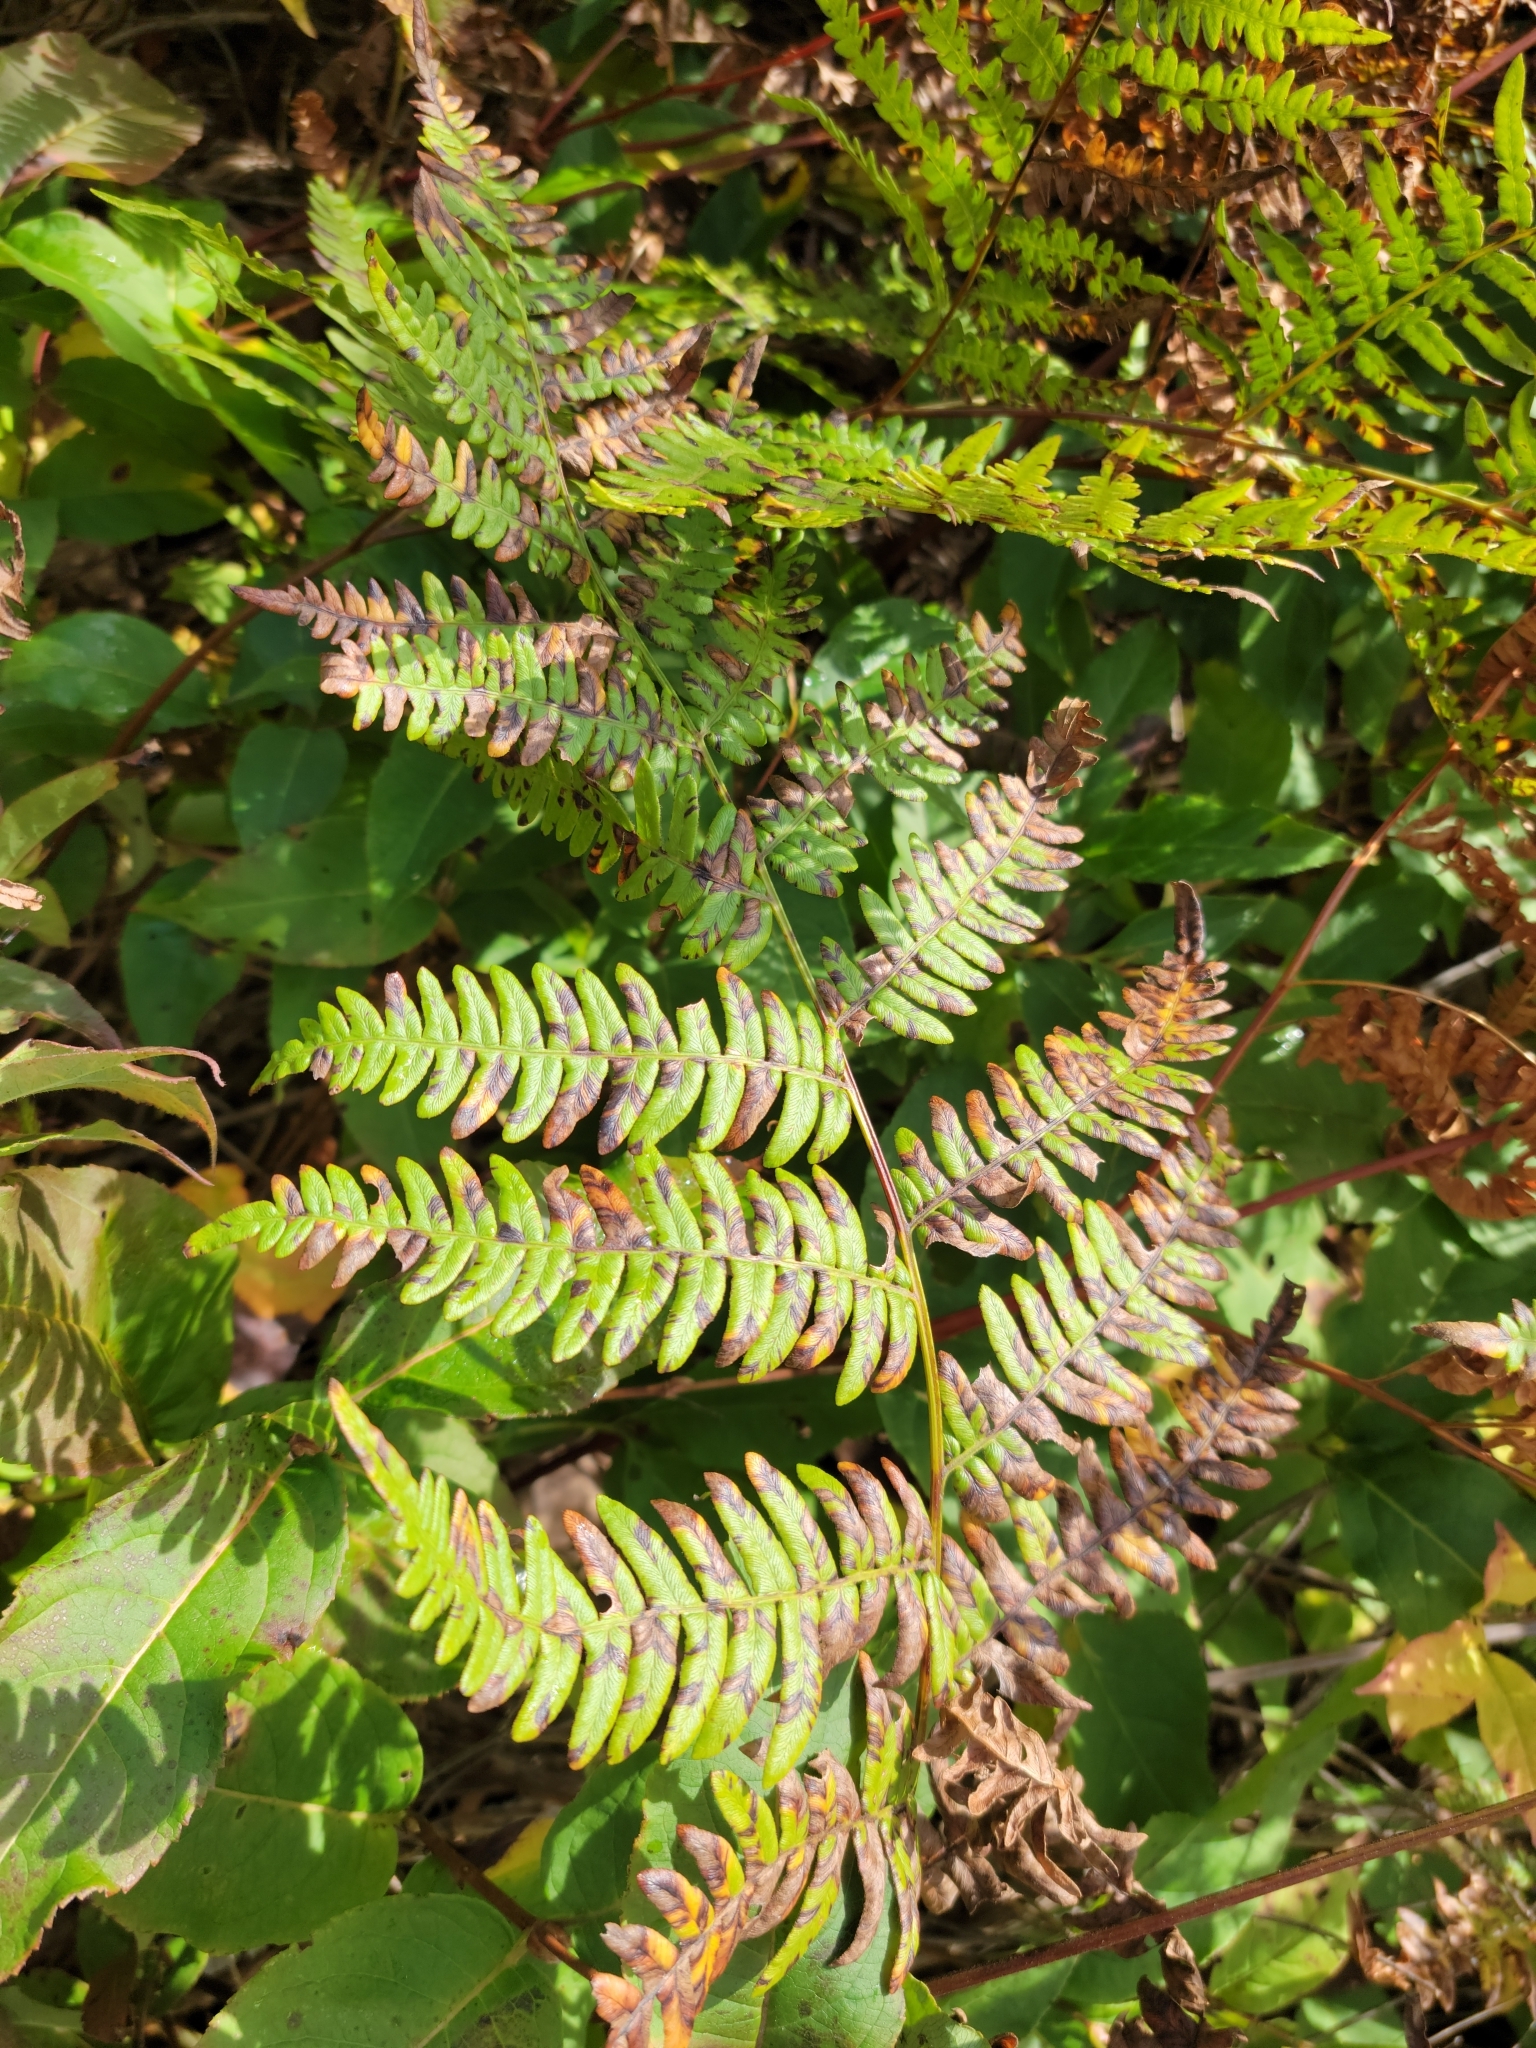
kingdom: Plantae
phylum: Tracheophyta
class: Polypodiopsida
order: Polypodiales
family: Dennstaedtiaceae
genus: Pteridium
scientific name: Pteridium aquilinum
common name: Bracken
